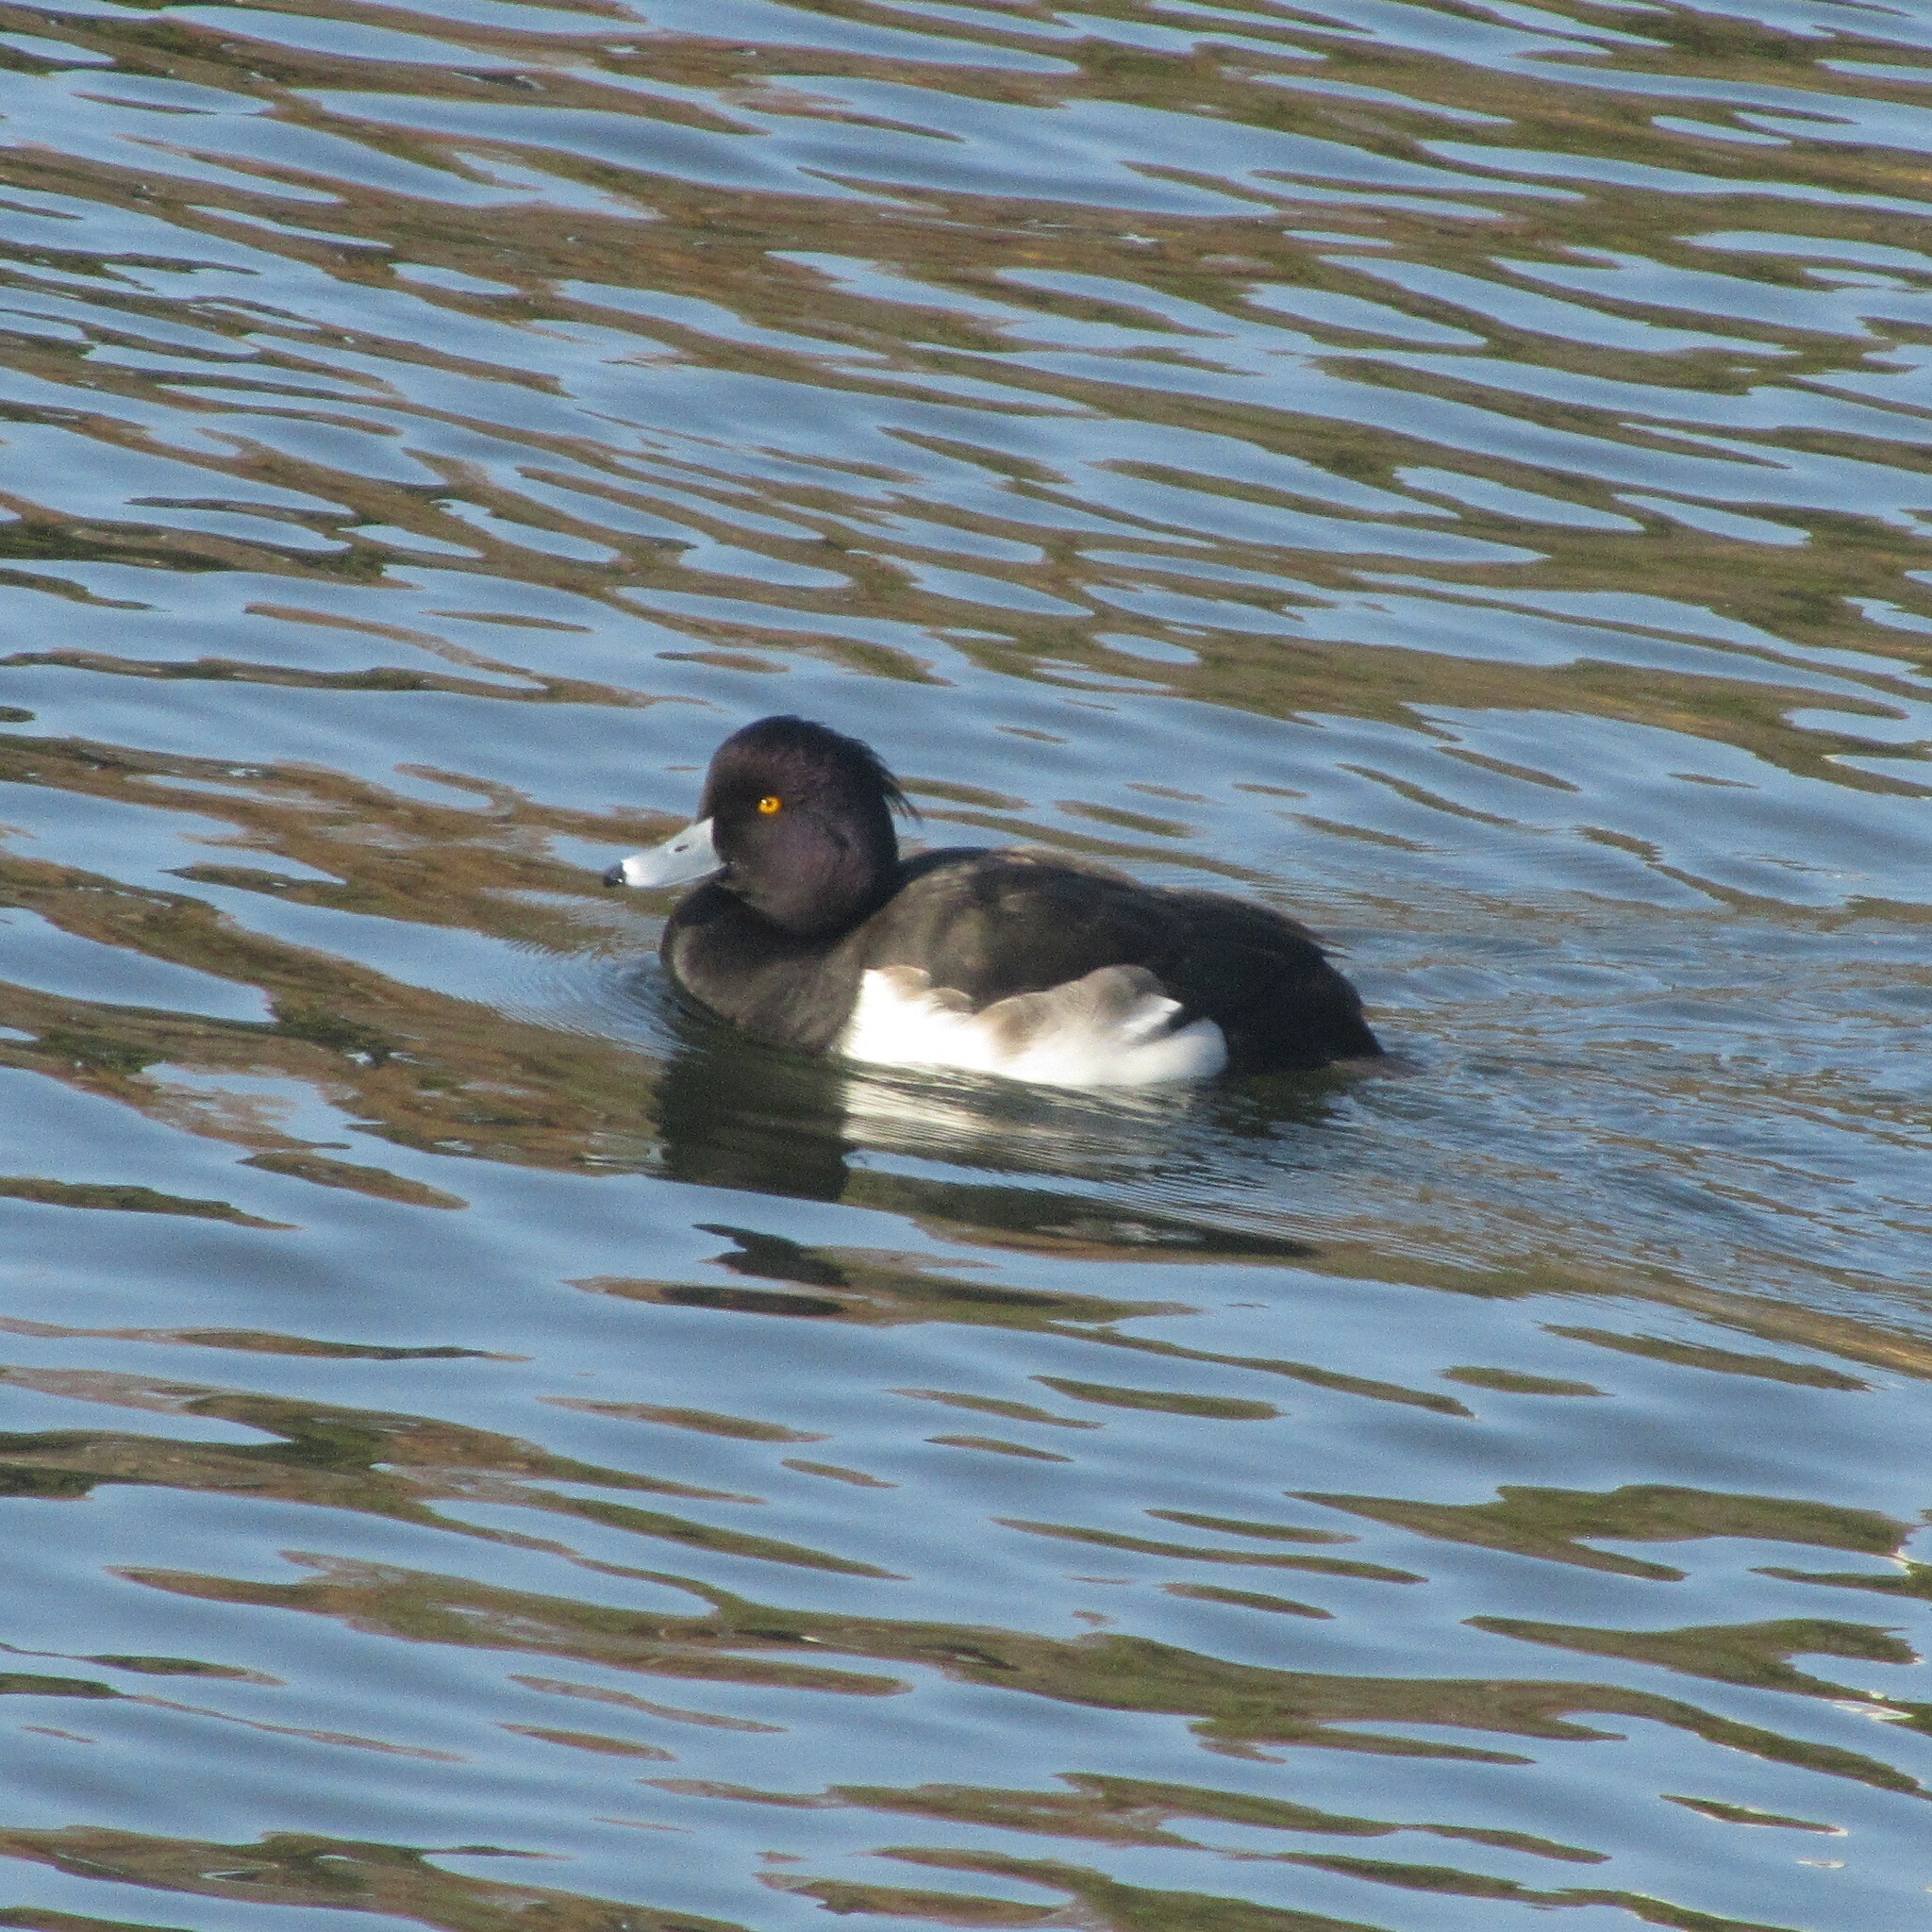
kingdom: Animalia
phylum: Chordata
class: Aves
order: Anseriformes
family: Anatidae
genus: Aythya
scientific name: Aythya fuligula
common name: Tufted duck
